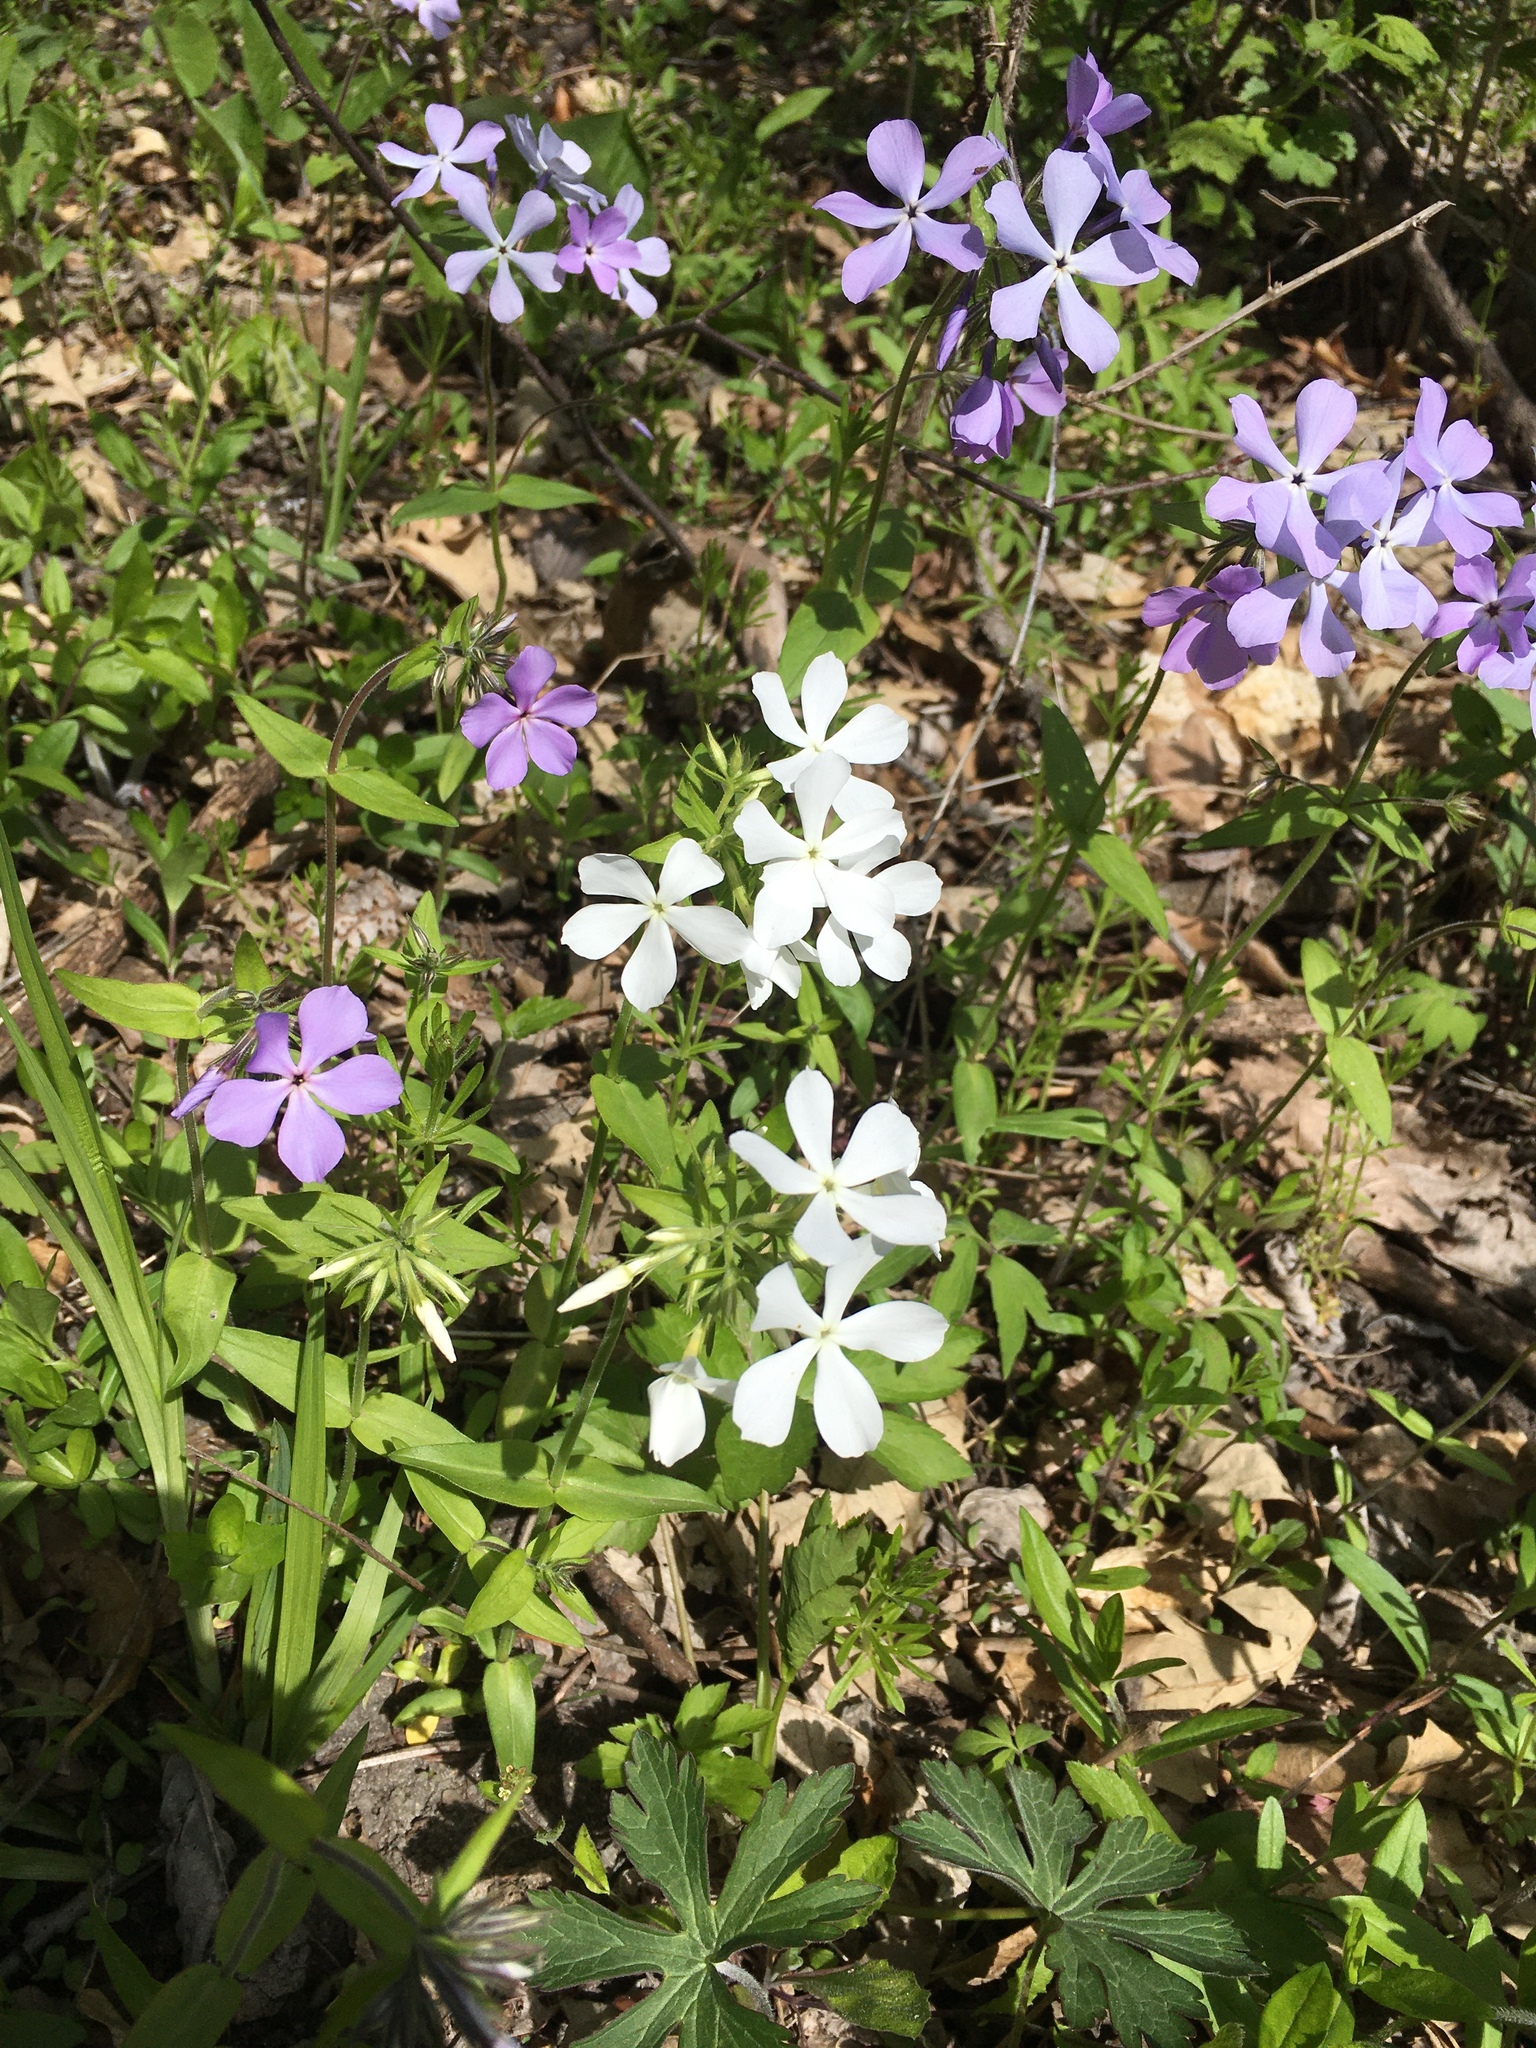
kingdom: Plantae
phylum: Tracheophyta
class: Magnoliopsida
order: Ericales
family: Polemoniaceae
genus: Phlox
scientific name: Phlox divaricata
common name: Blue phlox
